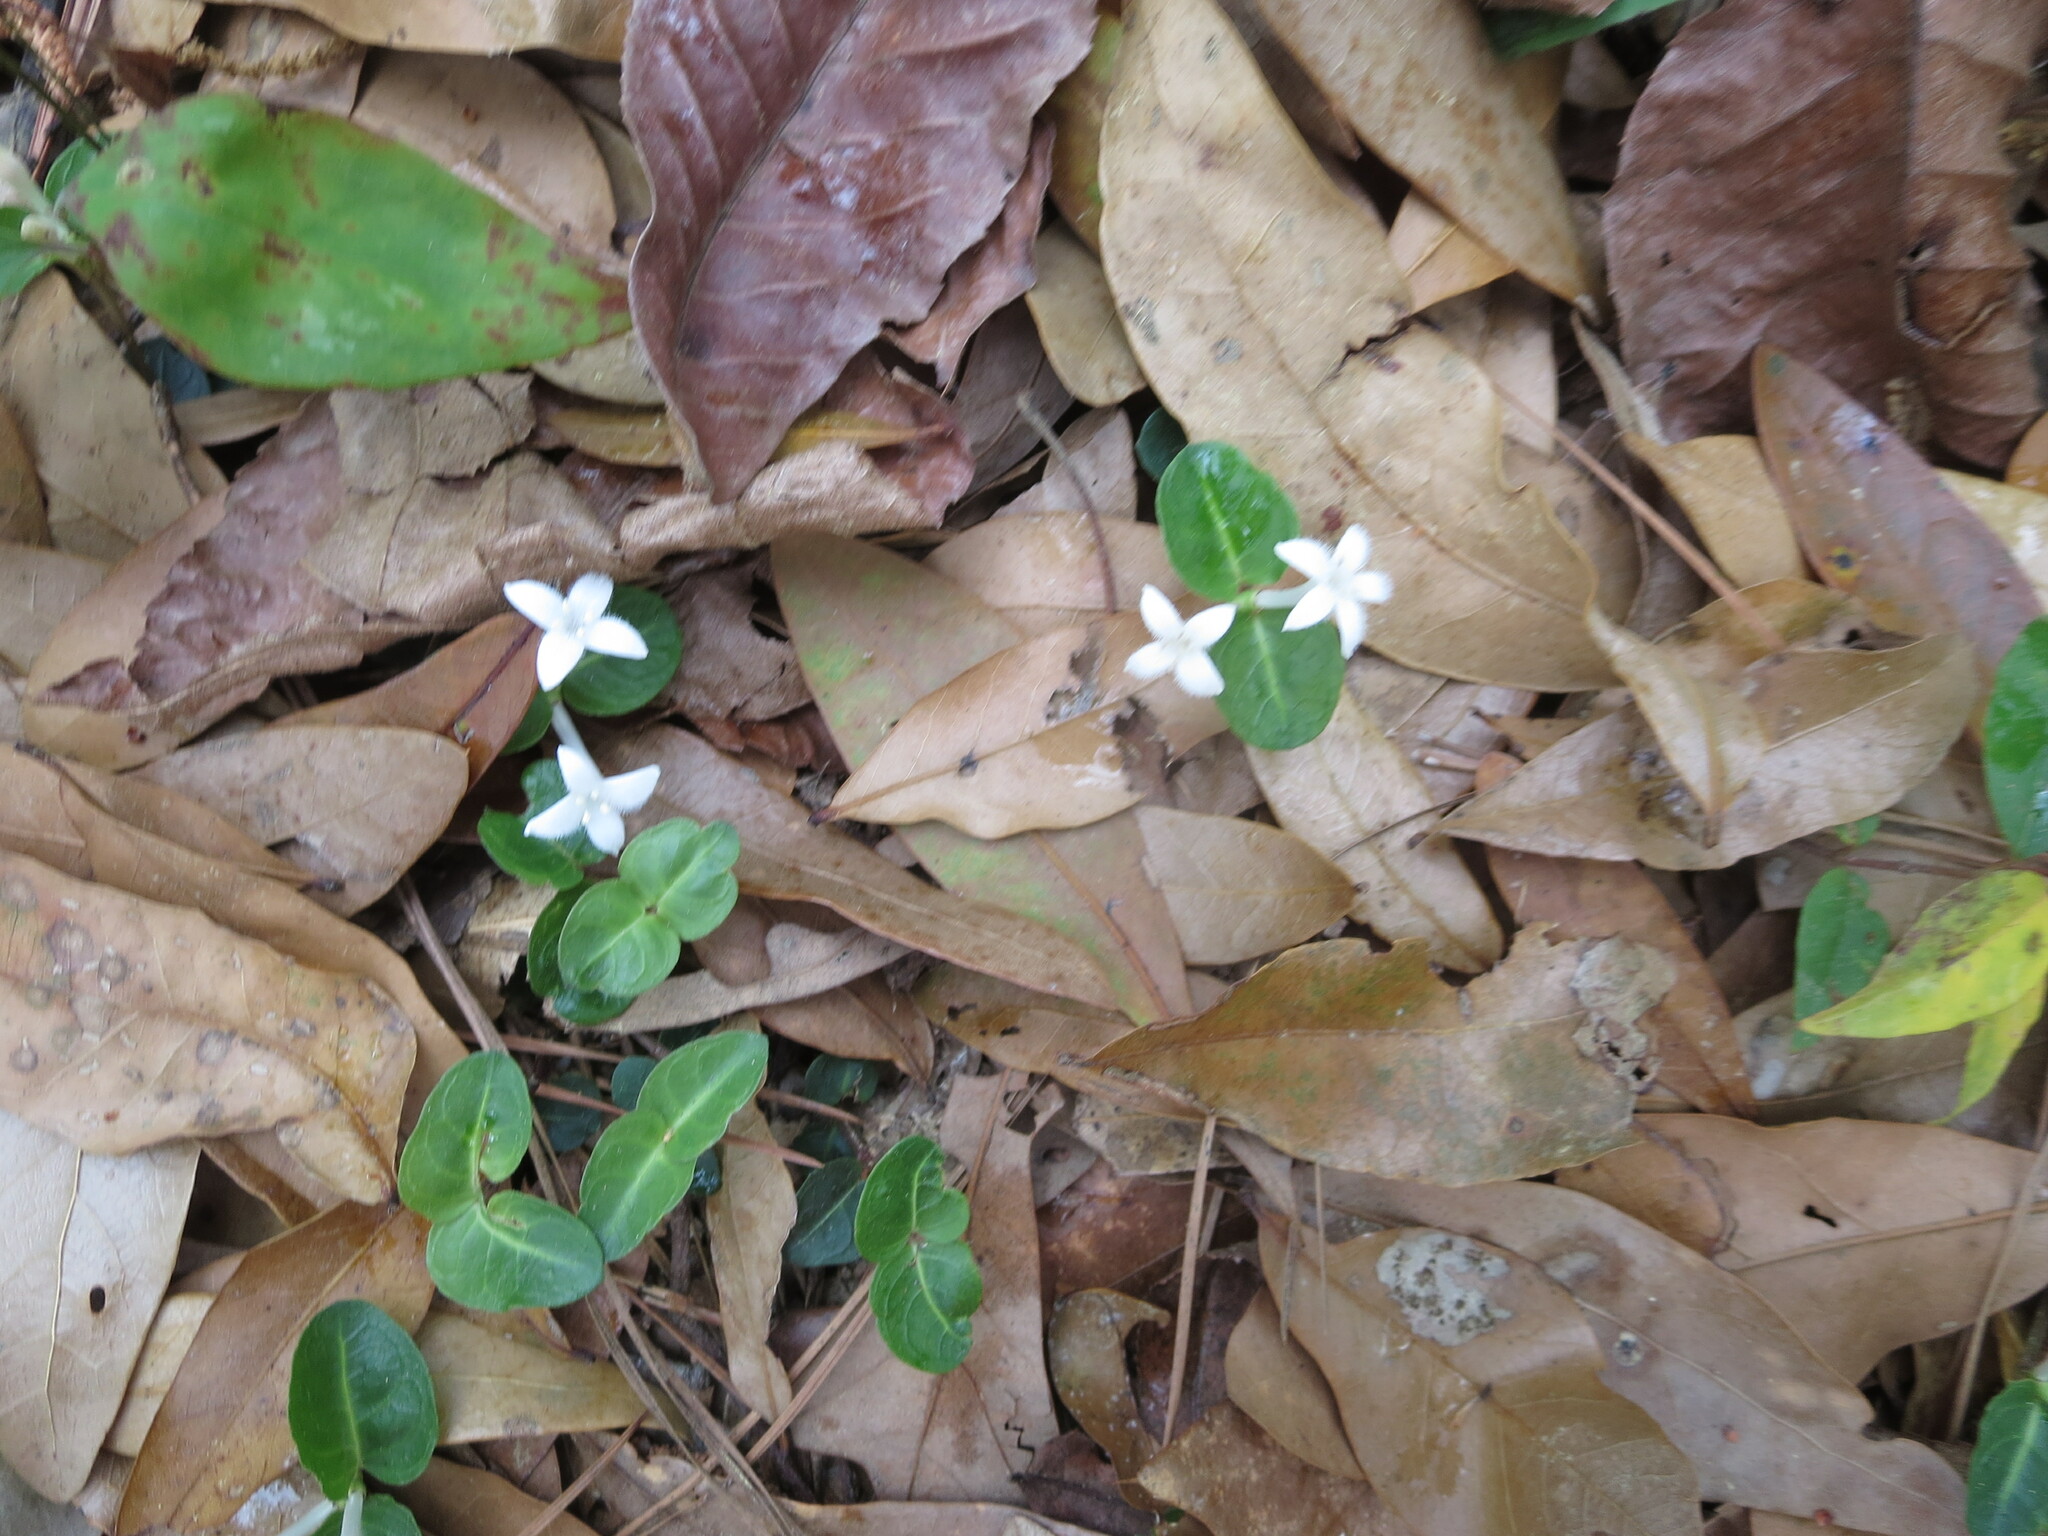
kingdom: Plantae
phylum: Tracheophyta
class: Magnoliopsida
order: Gentianales
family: Rubiaceae
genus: Mitchella
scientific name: Mitchella repens
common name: Partridge-berry
